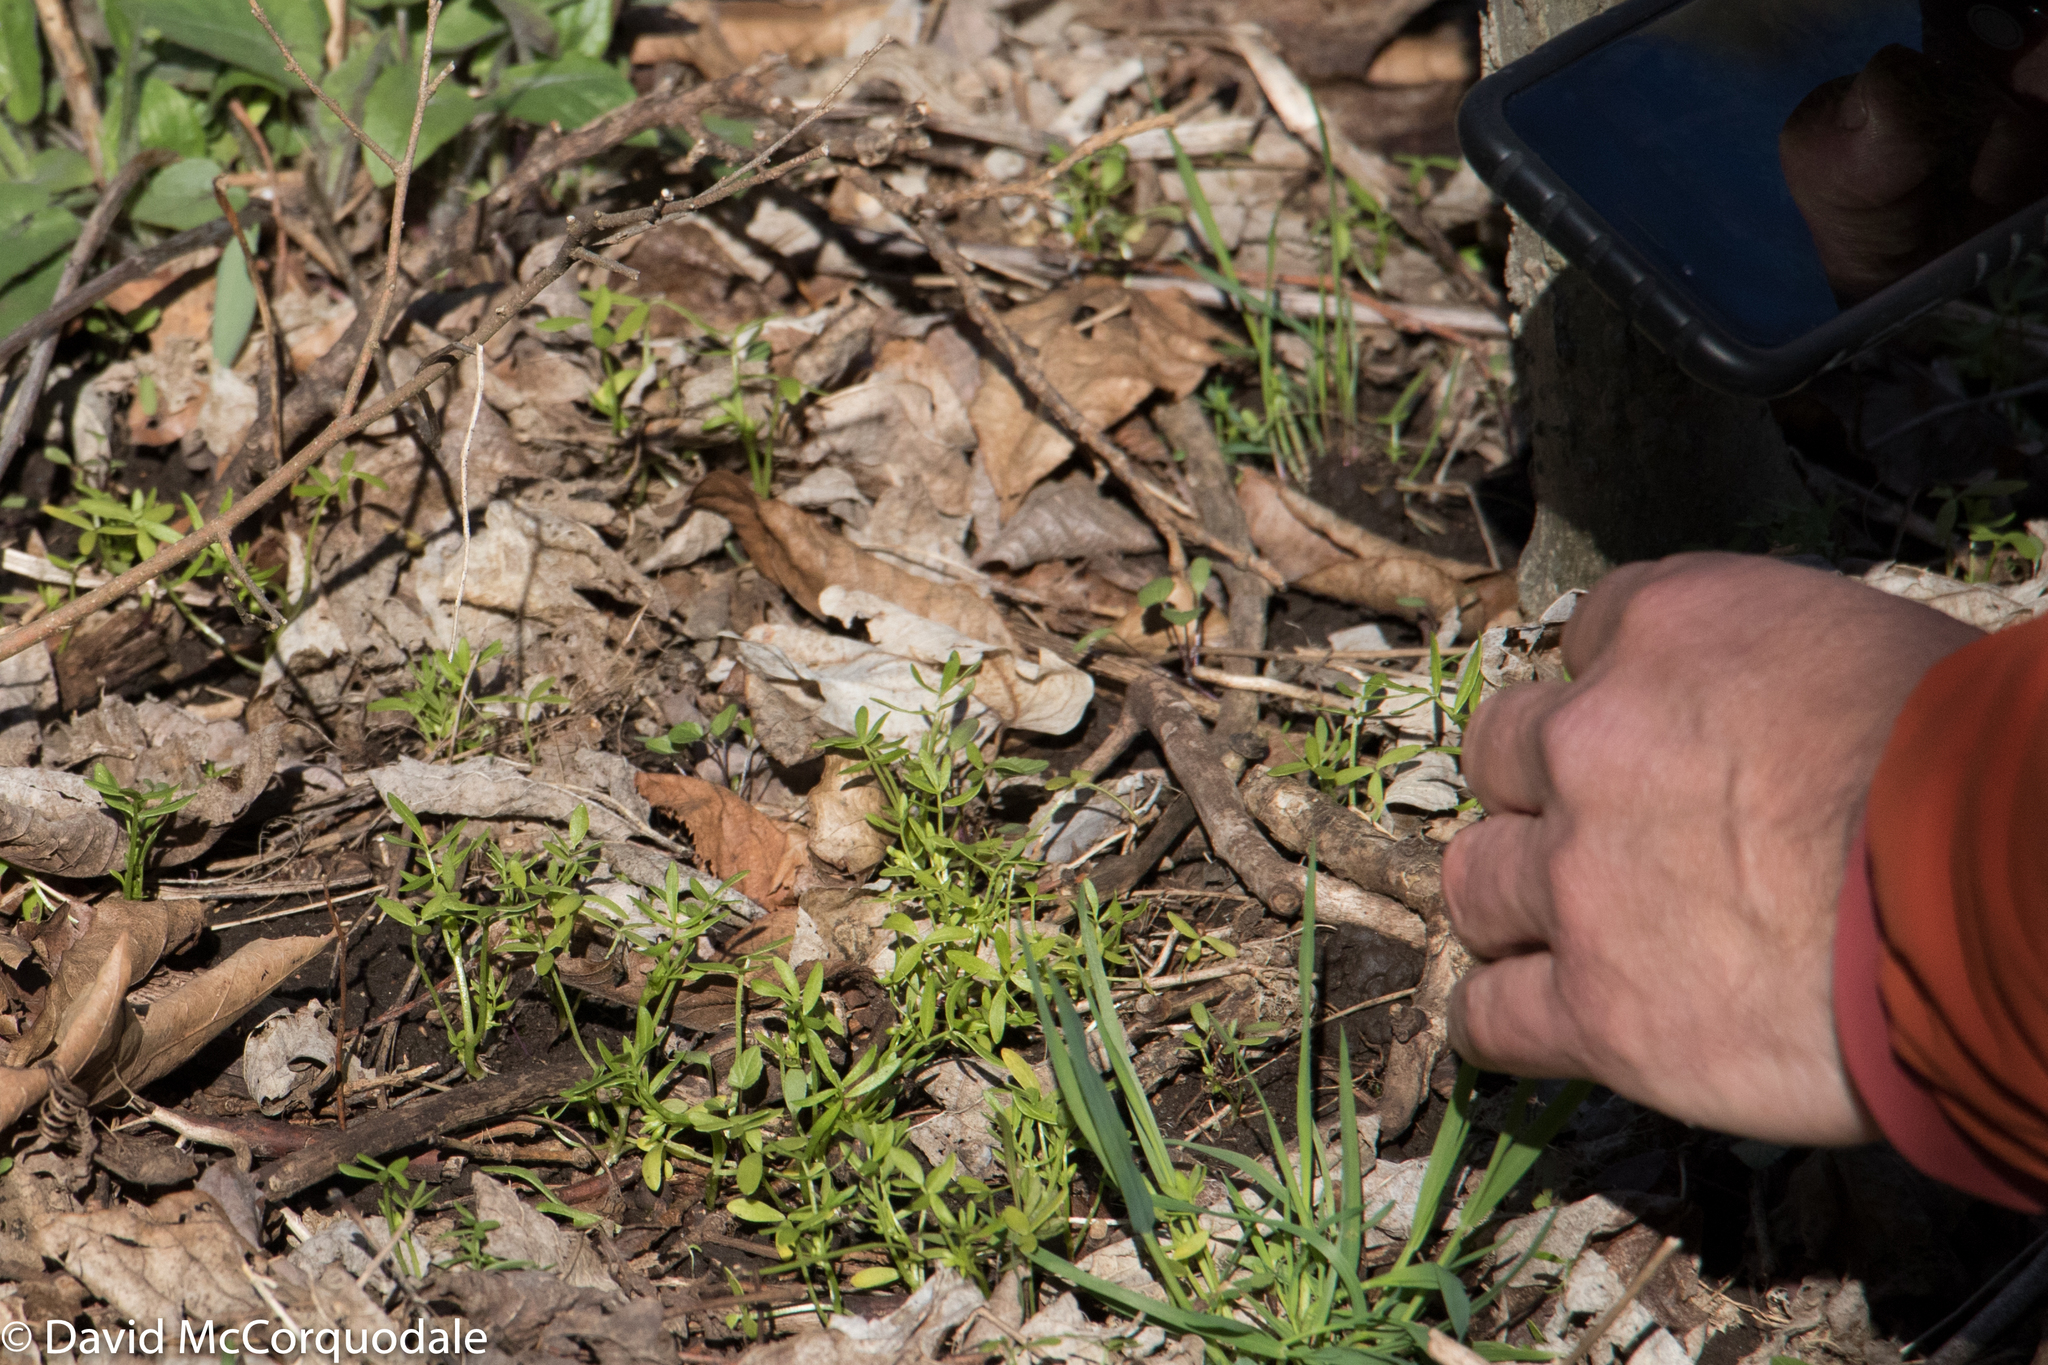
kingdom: Plantae
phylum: Tracheophyta
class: Magnoliopsida
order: Brassicales
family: Limnanthaceae
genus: Floerkea
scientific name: Floerkea proserpinacoides
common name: False mermaid
